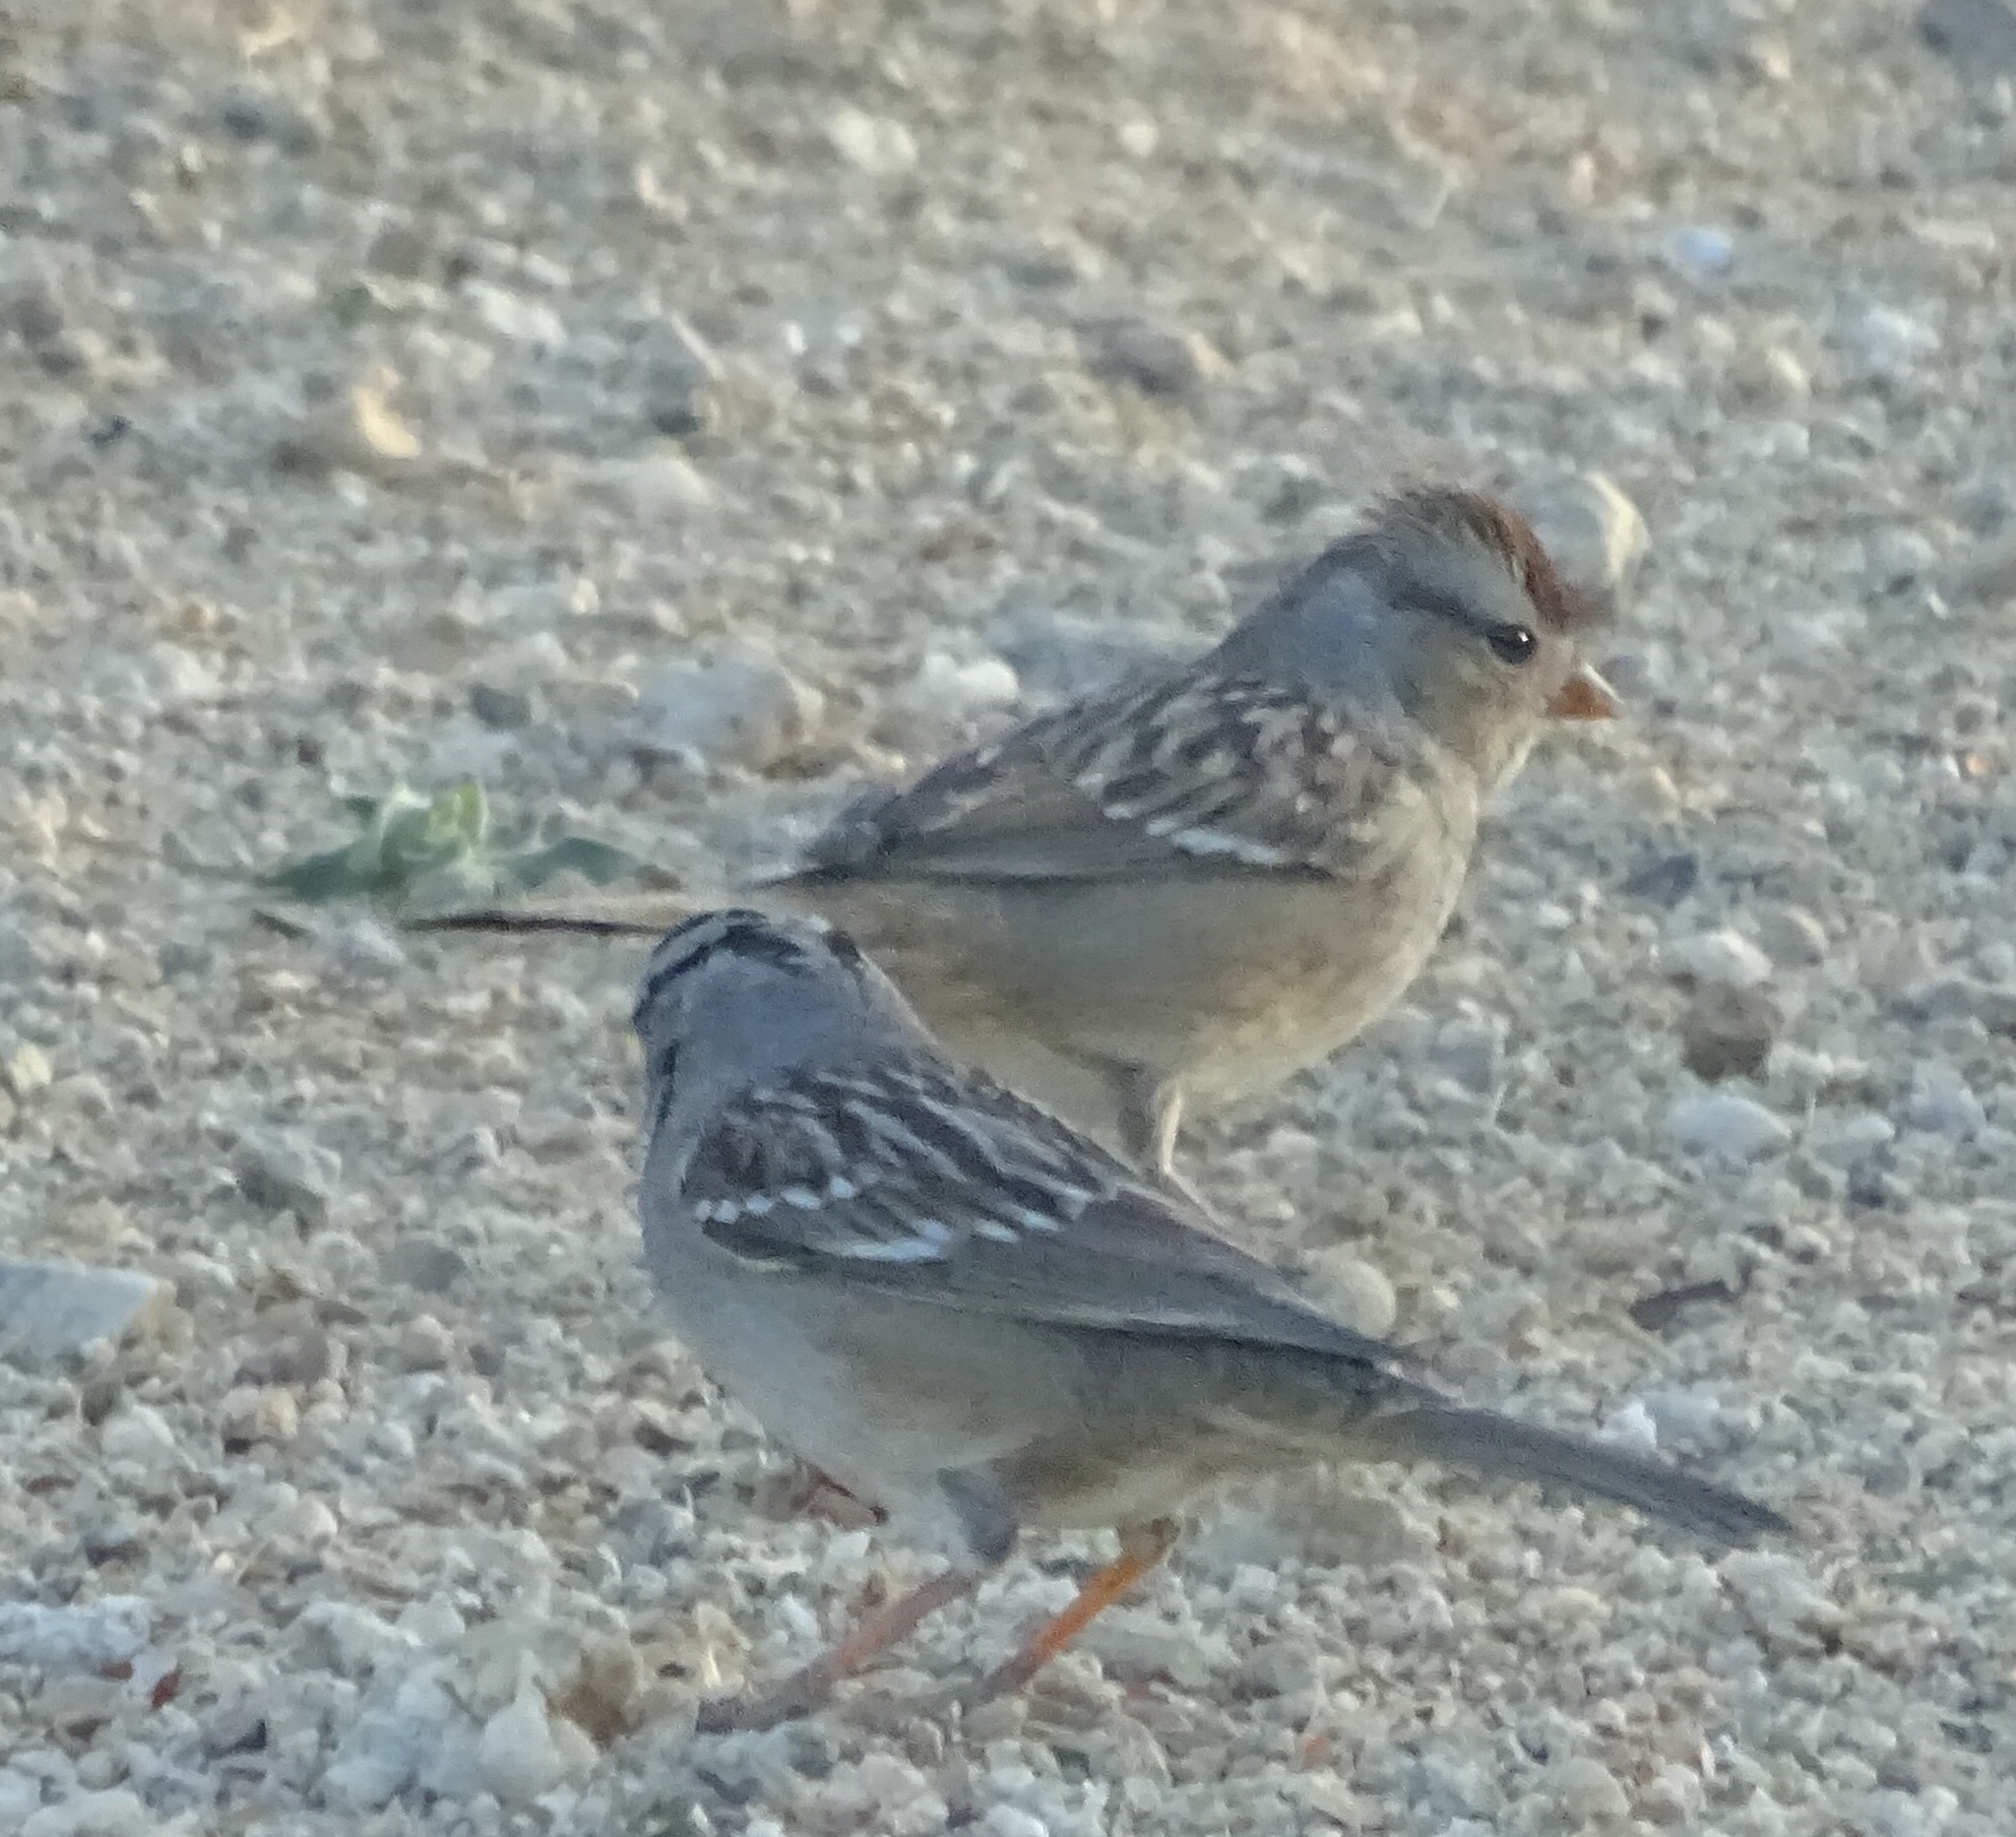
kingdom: Animalia
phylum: Chordata
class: Aves
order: Passeriformes
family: Passerellidae
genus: Zonotrichia
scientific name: Zonotrichia leucophrys
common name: White-crowned sparrow
